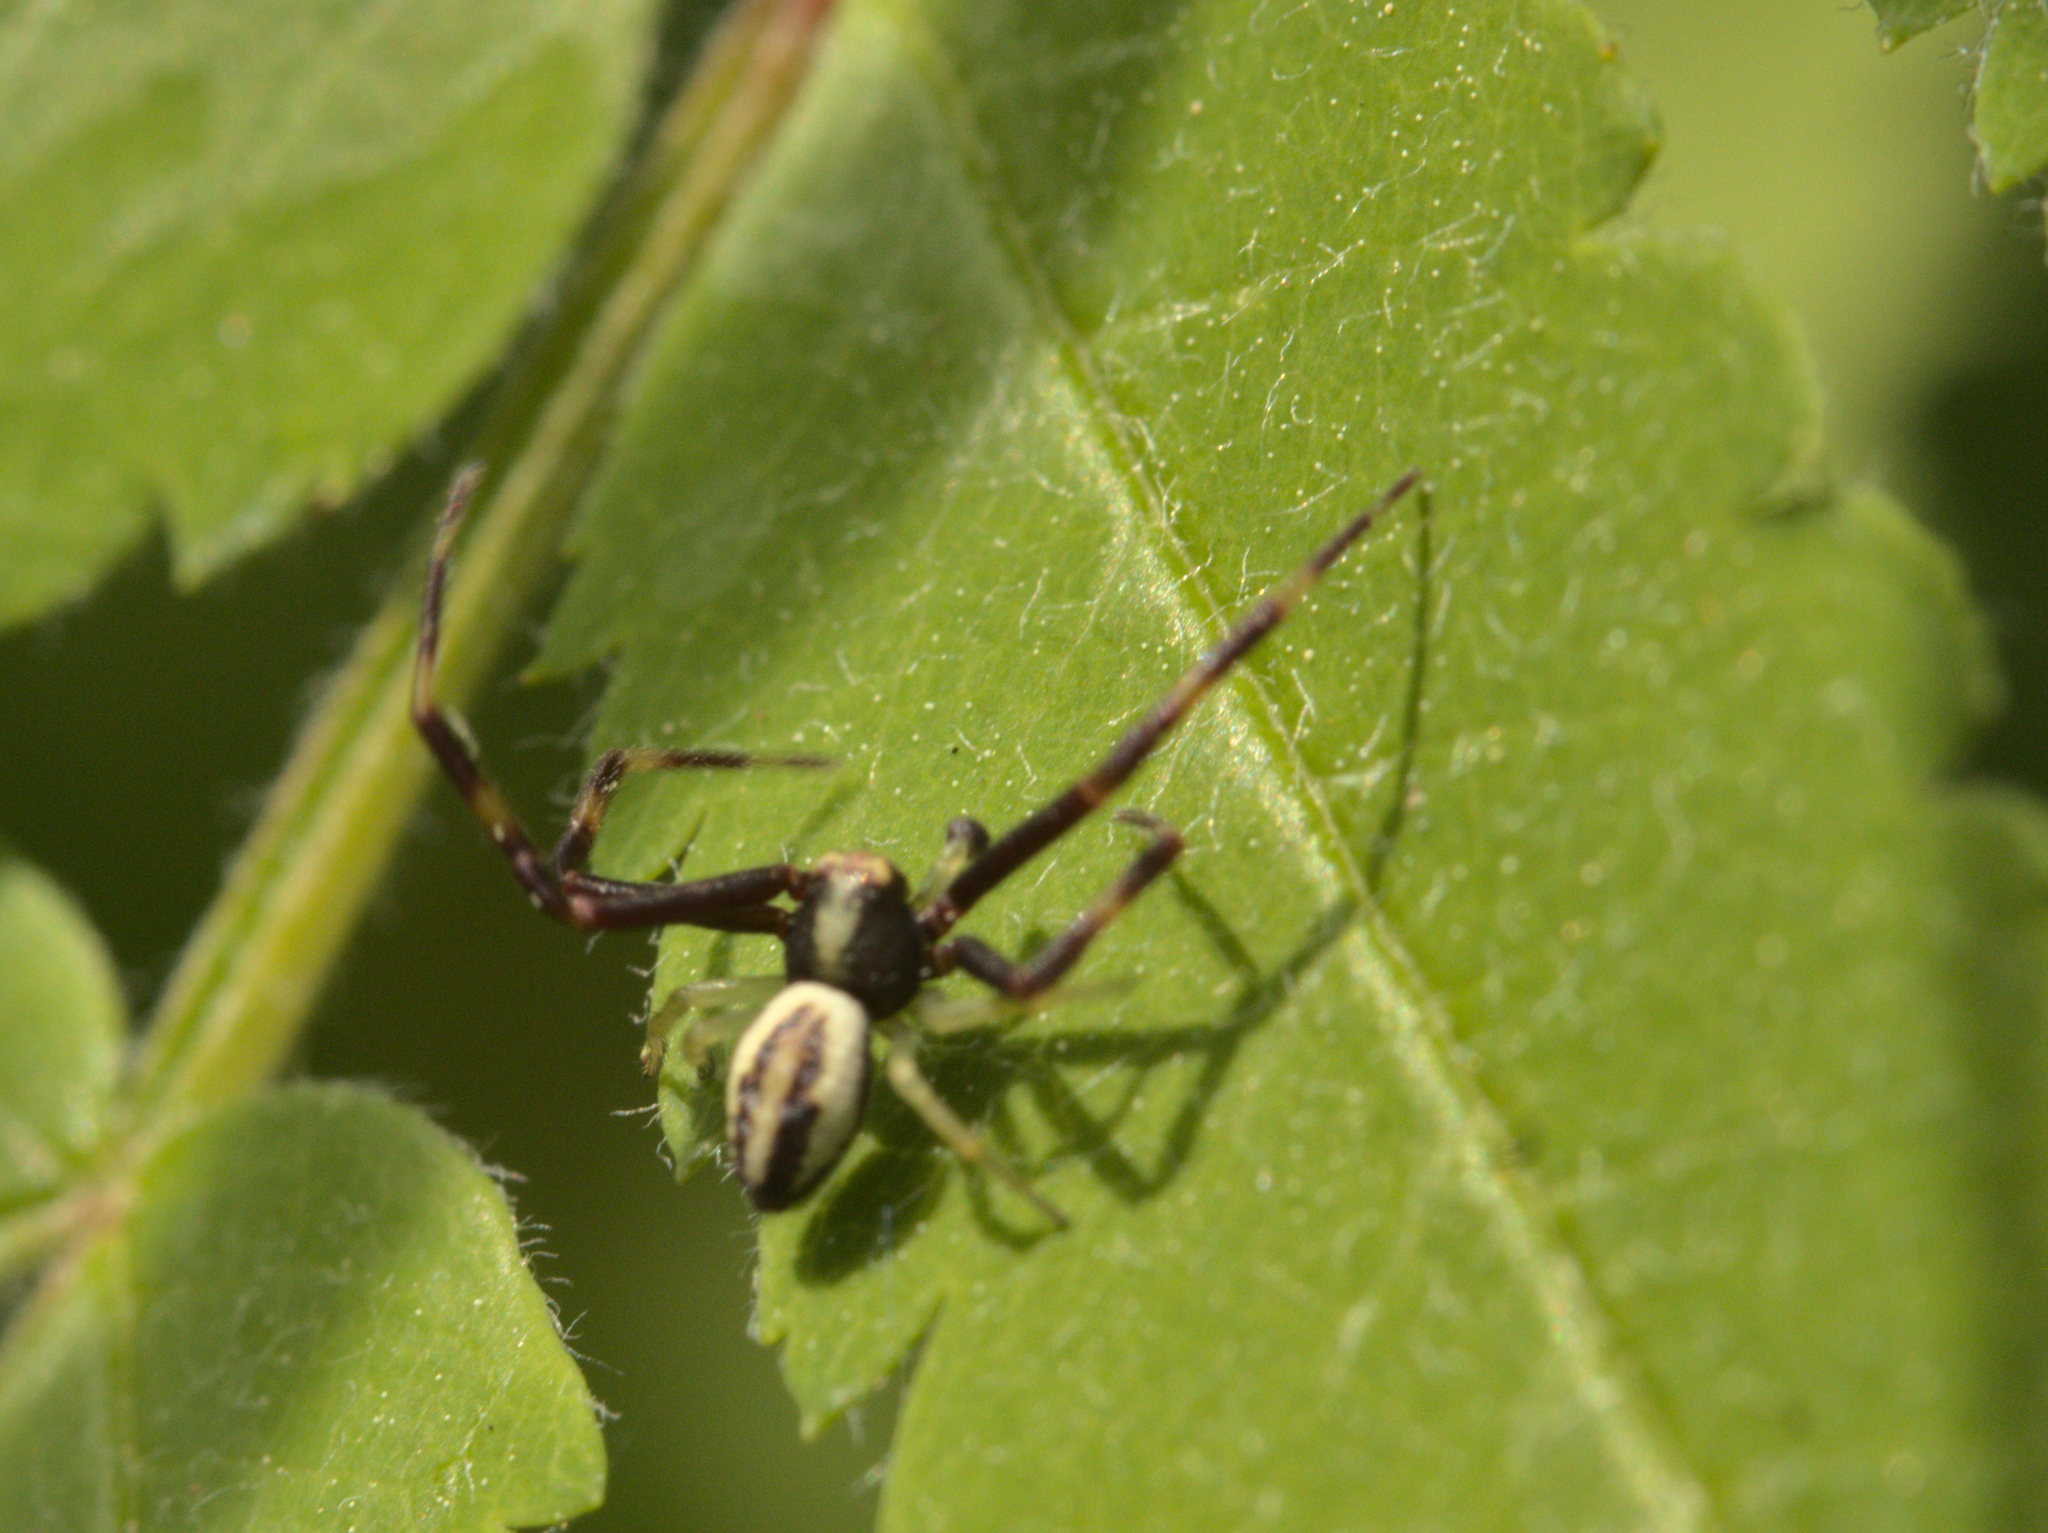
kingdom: Animalia
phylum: Arthropoda
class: Arachnida
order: Araneae
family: Thomisidae
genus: Misumena
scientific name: Misumena vatia
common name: Goldenrod crab spider
